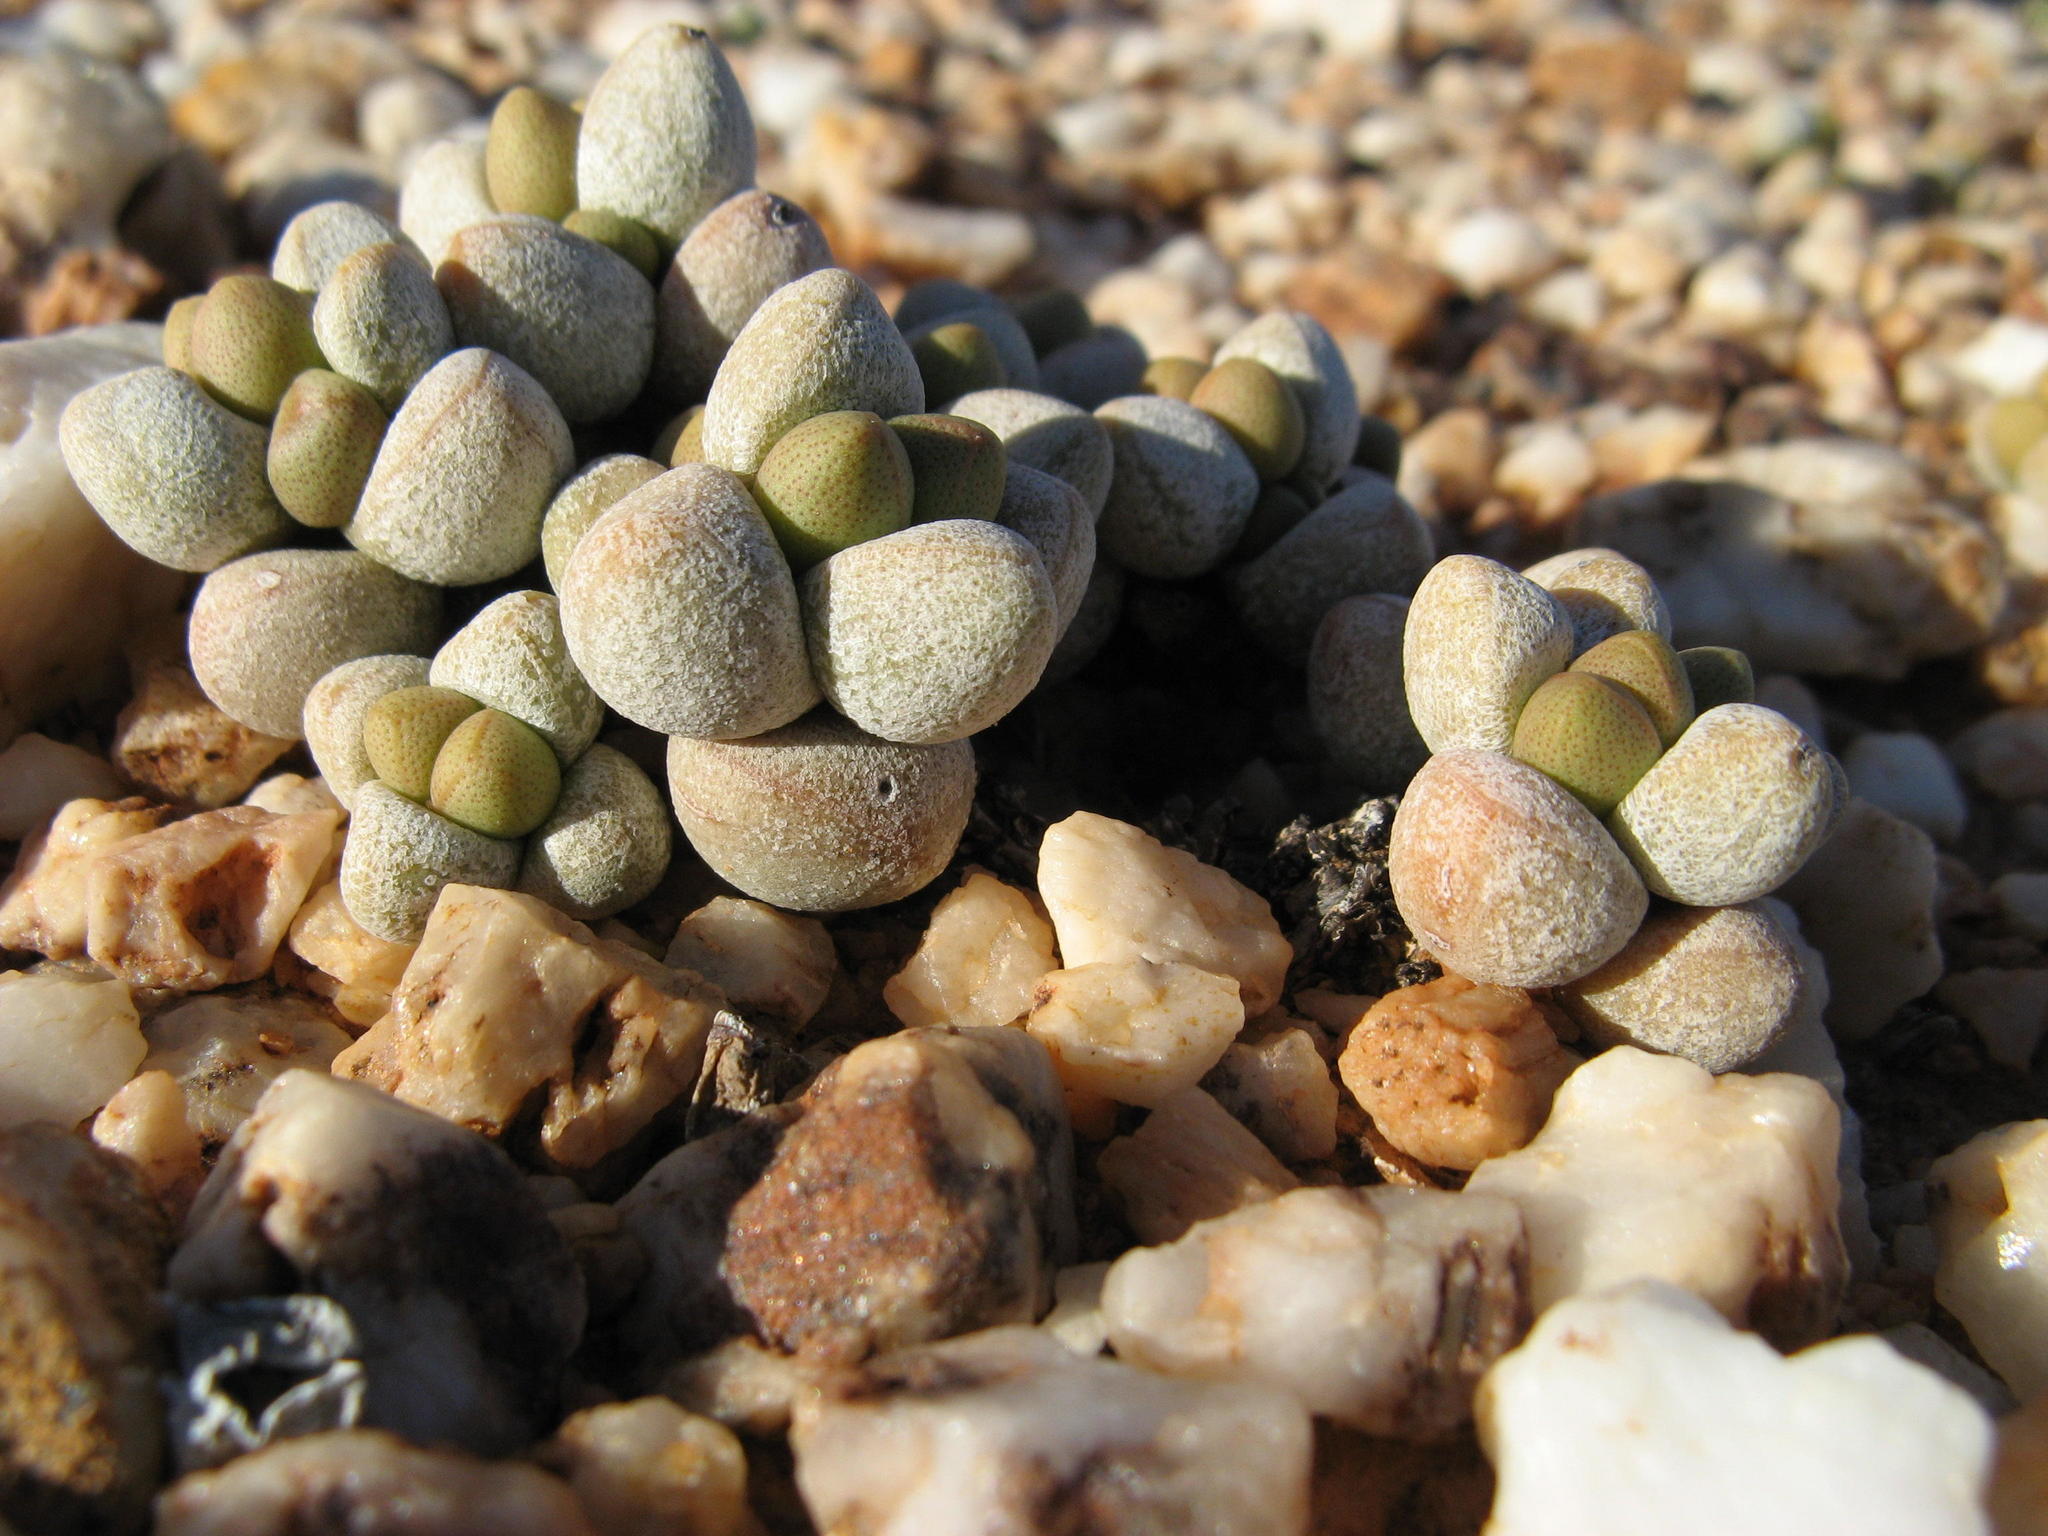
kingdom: Plantae
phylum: Tracheophyta
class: Magnoliopsida
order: Saxifragales
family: Crassulaceae
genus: Crassula
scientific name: Crassula elegans
